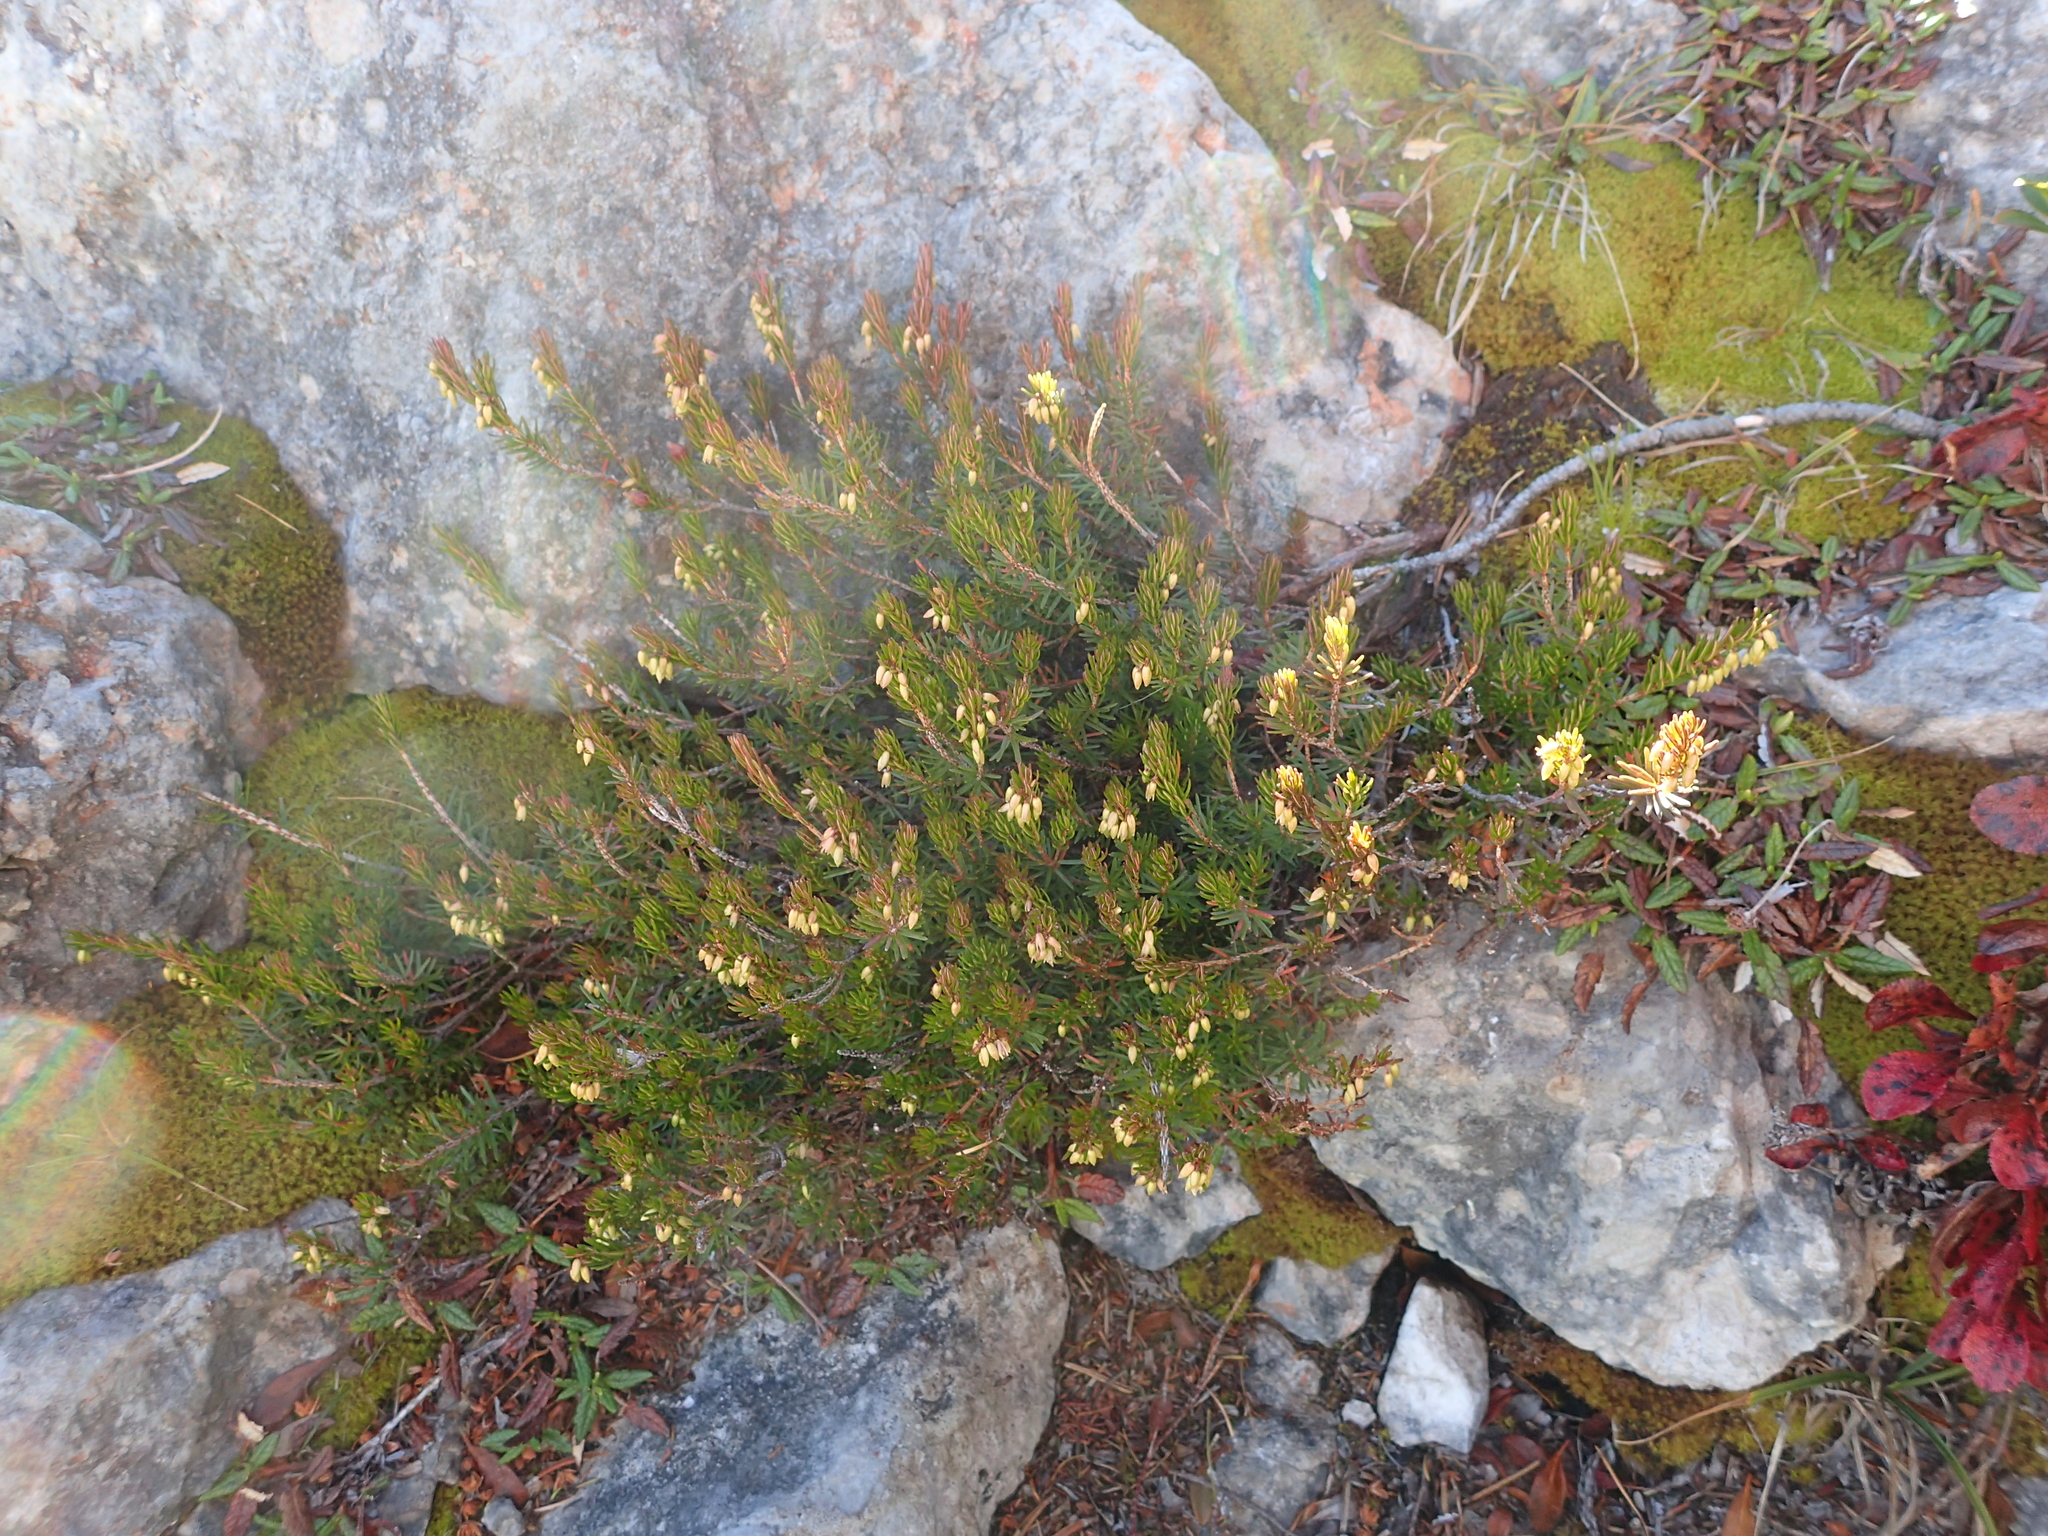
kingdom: Plantae
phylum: Tracheophyta
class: Magnoliopsida
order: Ericales
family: Ericaceae
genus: Erica
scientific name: Erica carnea
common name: Winter heath
